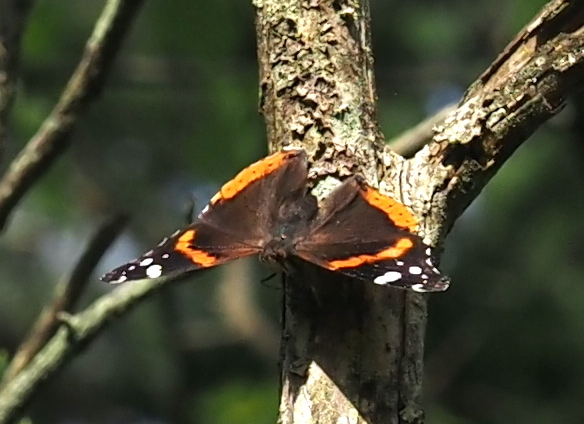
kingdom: Animalia
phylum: Arthropoda
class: Insecta
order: Lepidoptera
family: Nymphalidae
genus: Vanessa
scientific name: Vanessa atalanta
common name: Red admiral
